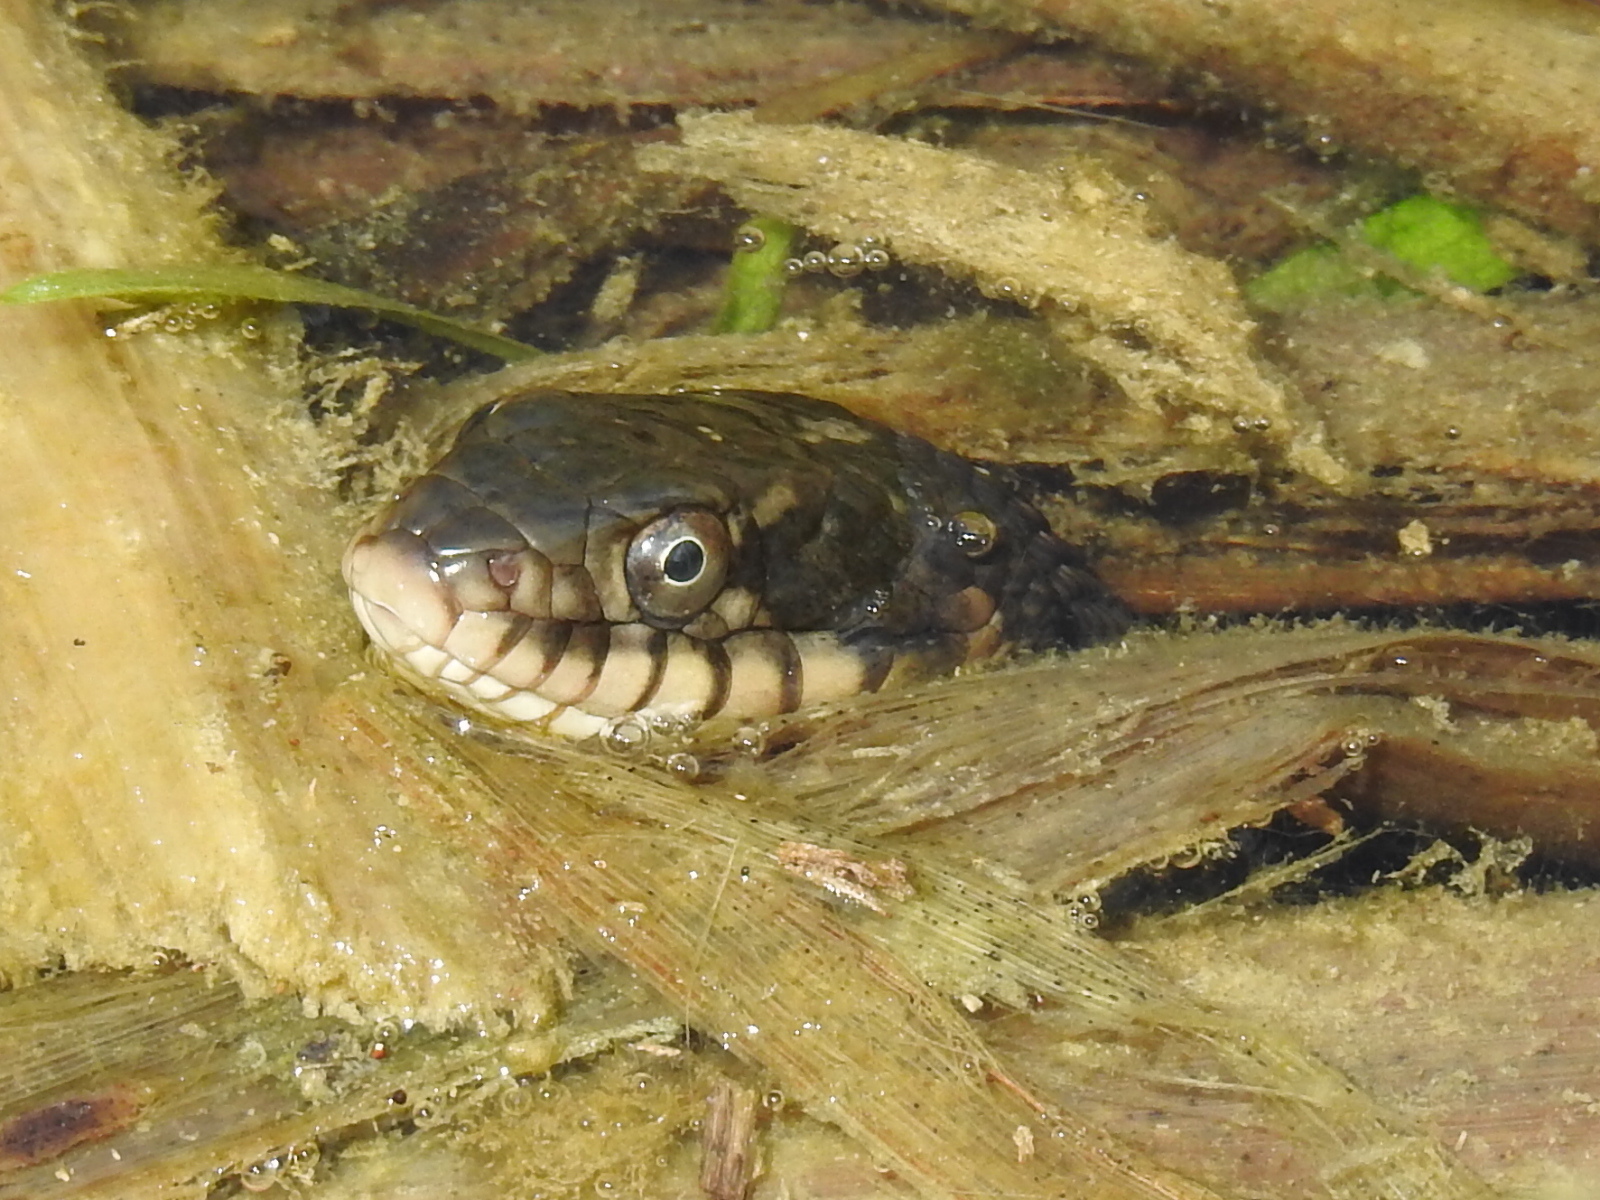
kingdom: Animalia
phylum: Chordata
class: Squamata
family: Colubridae
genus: Nerodia
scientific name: Nerodia erythrogaster
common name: Plainbelly water snake
